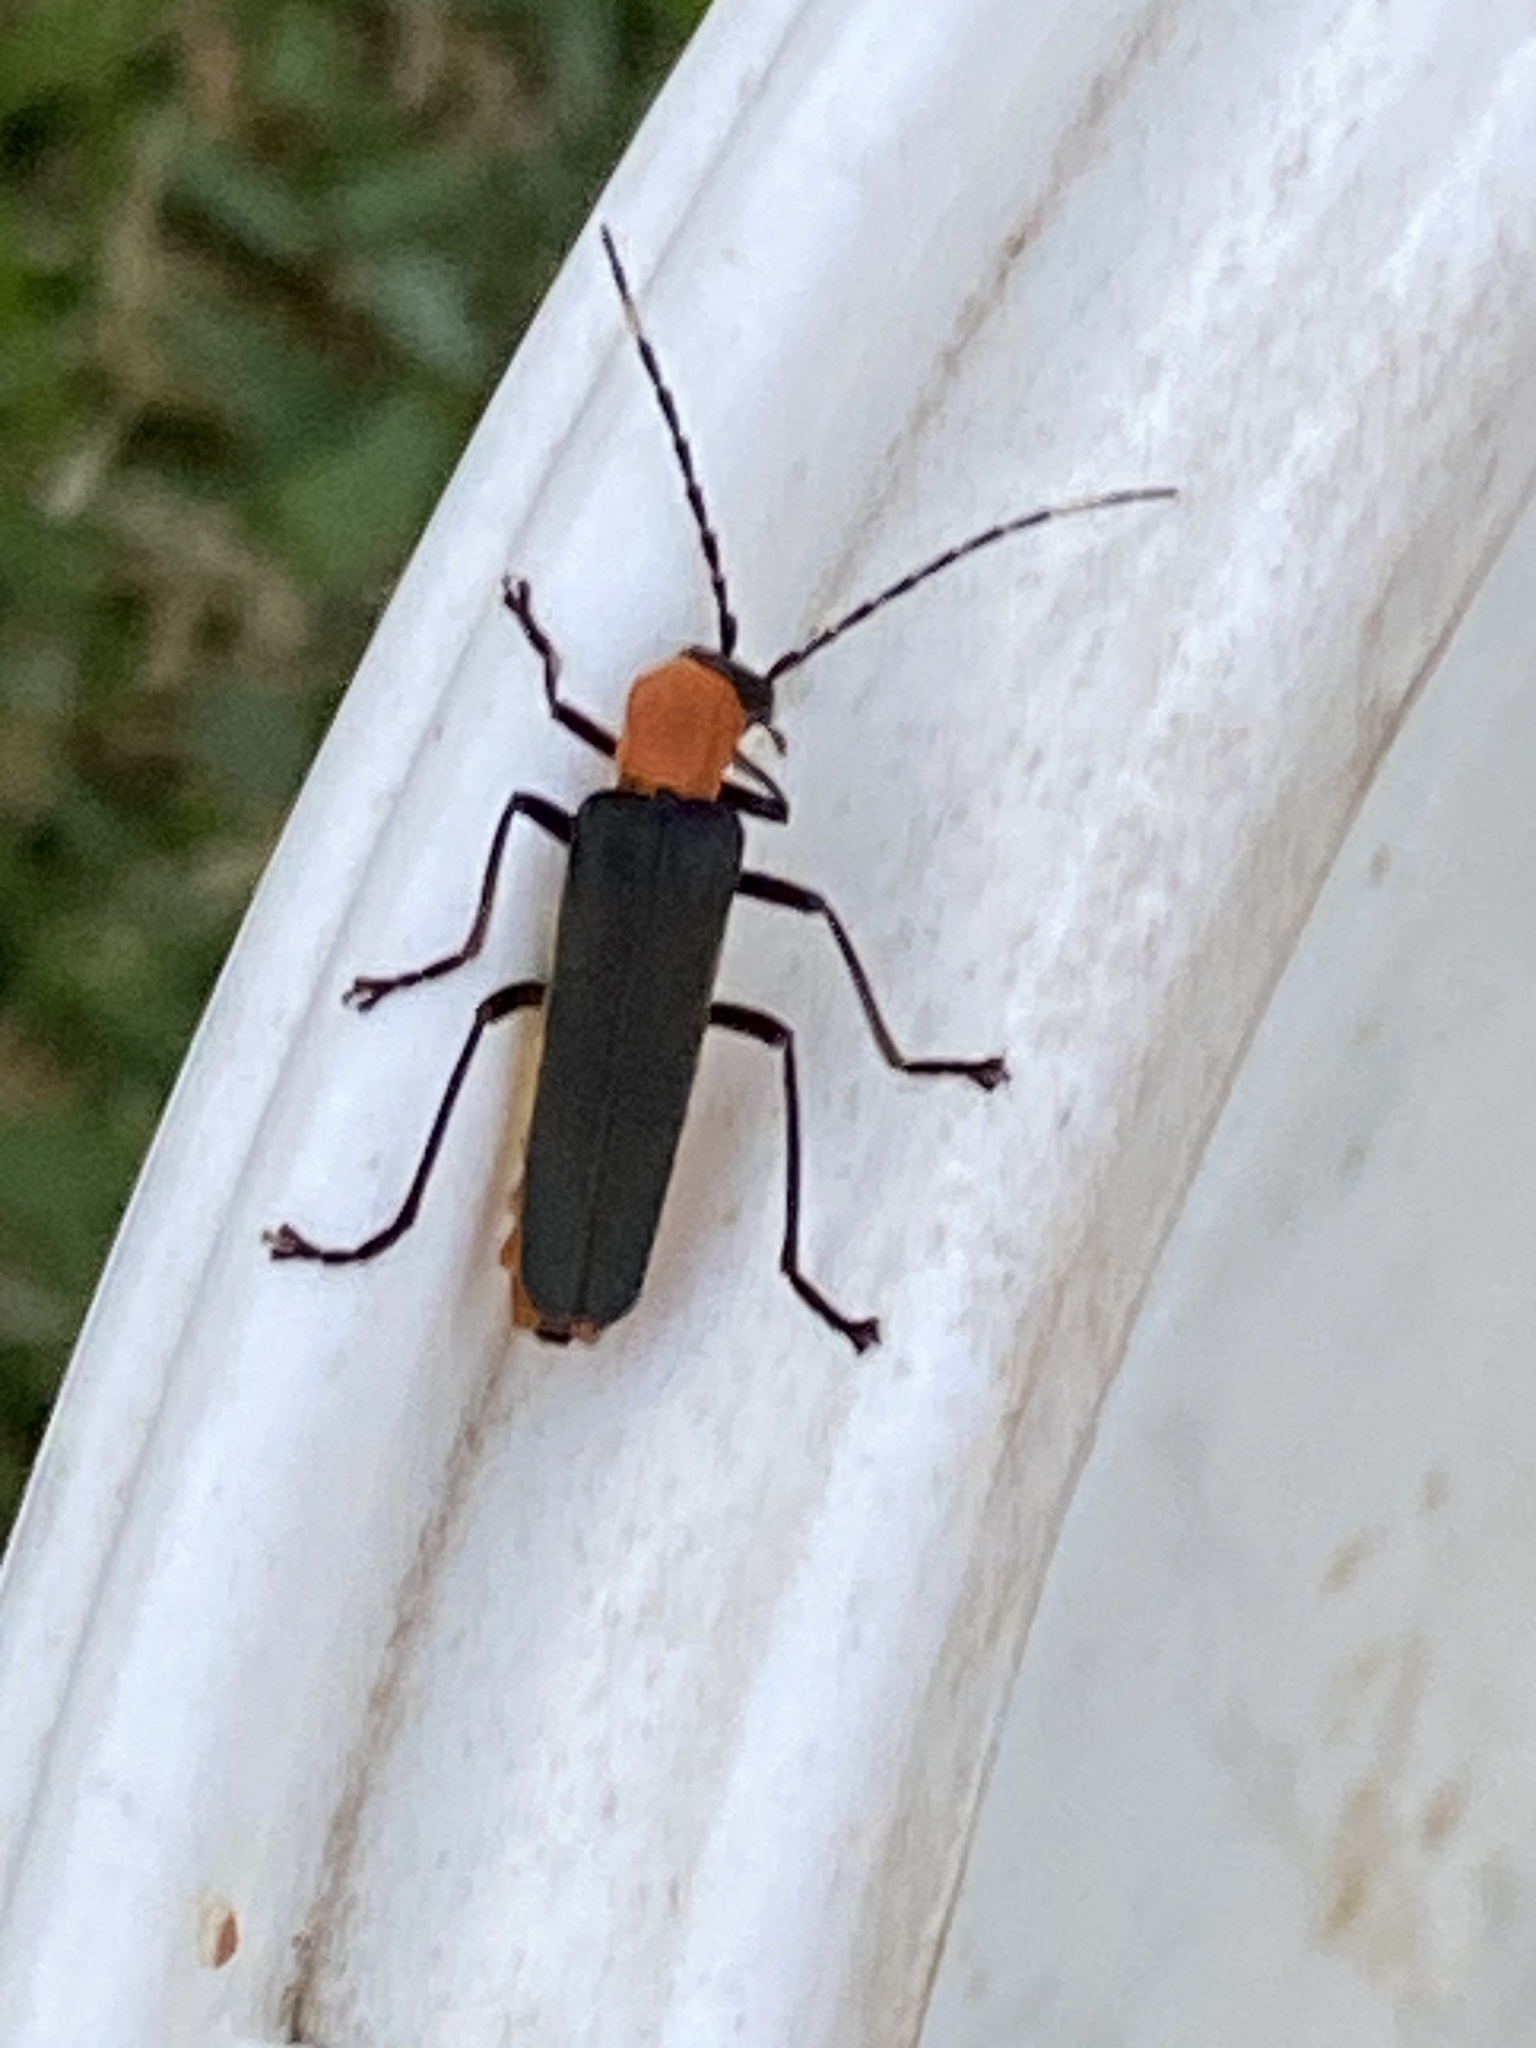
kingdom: Animalia
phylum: Arthropoda
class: Insecta
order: Coleoptera
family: Cantharidae
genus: Chauliognathus
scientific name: Chauliognathus
